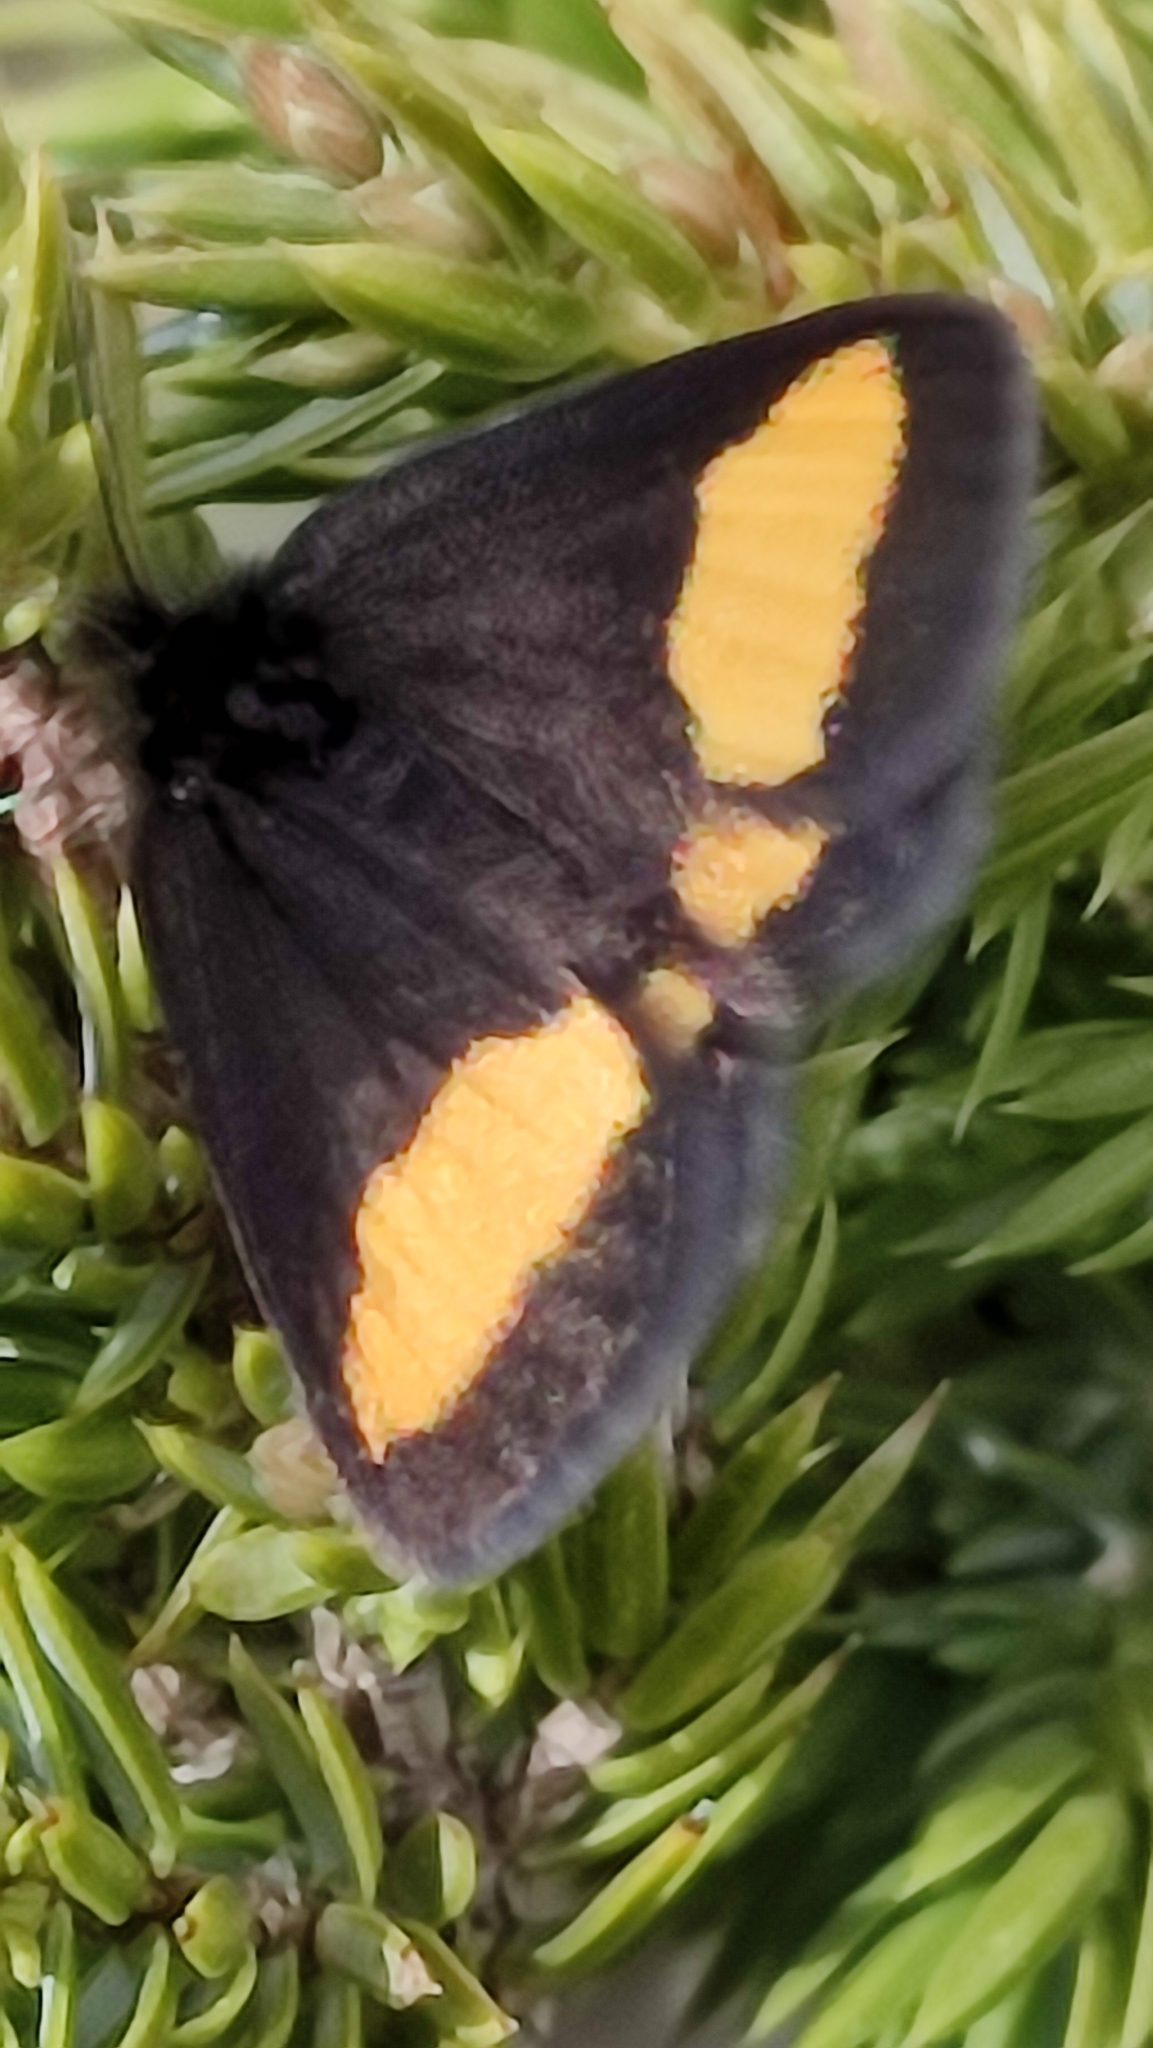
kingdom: Animalia
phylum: Arthropoda
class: Insecta
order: Lepidoptera
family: Geometridae
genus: Psodos
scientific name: Psodos quadrifaria
